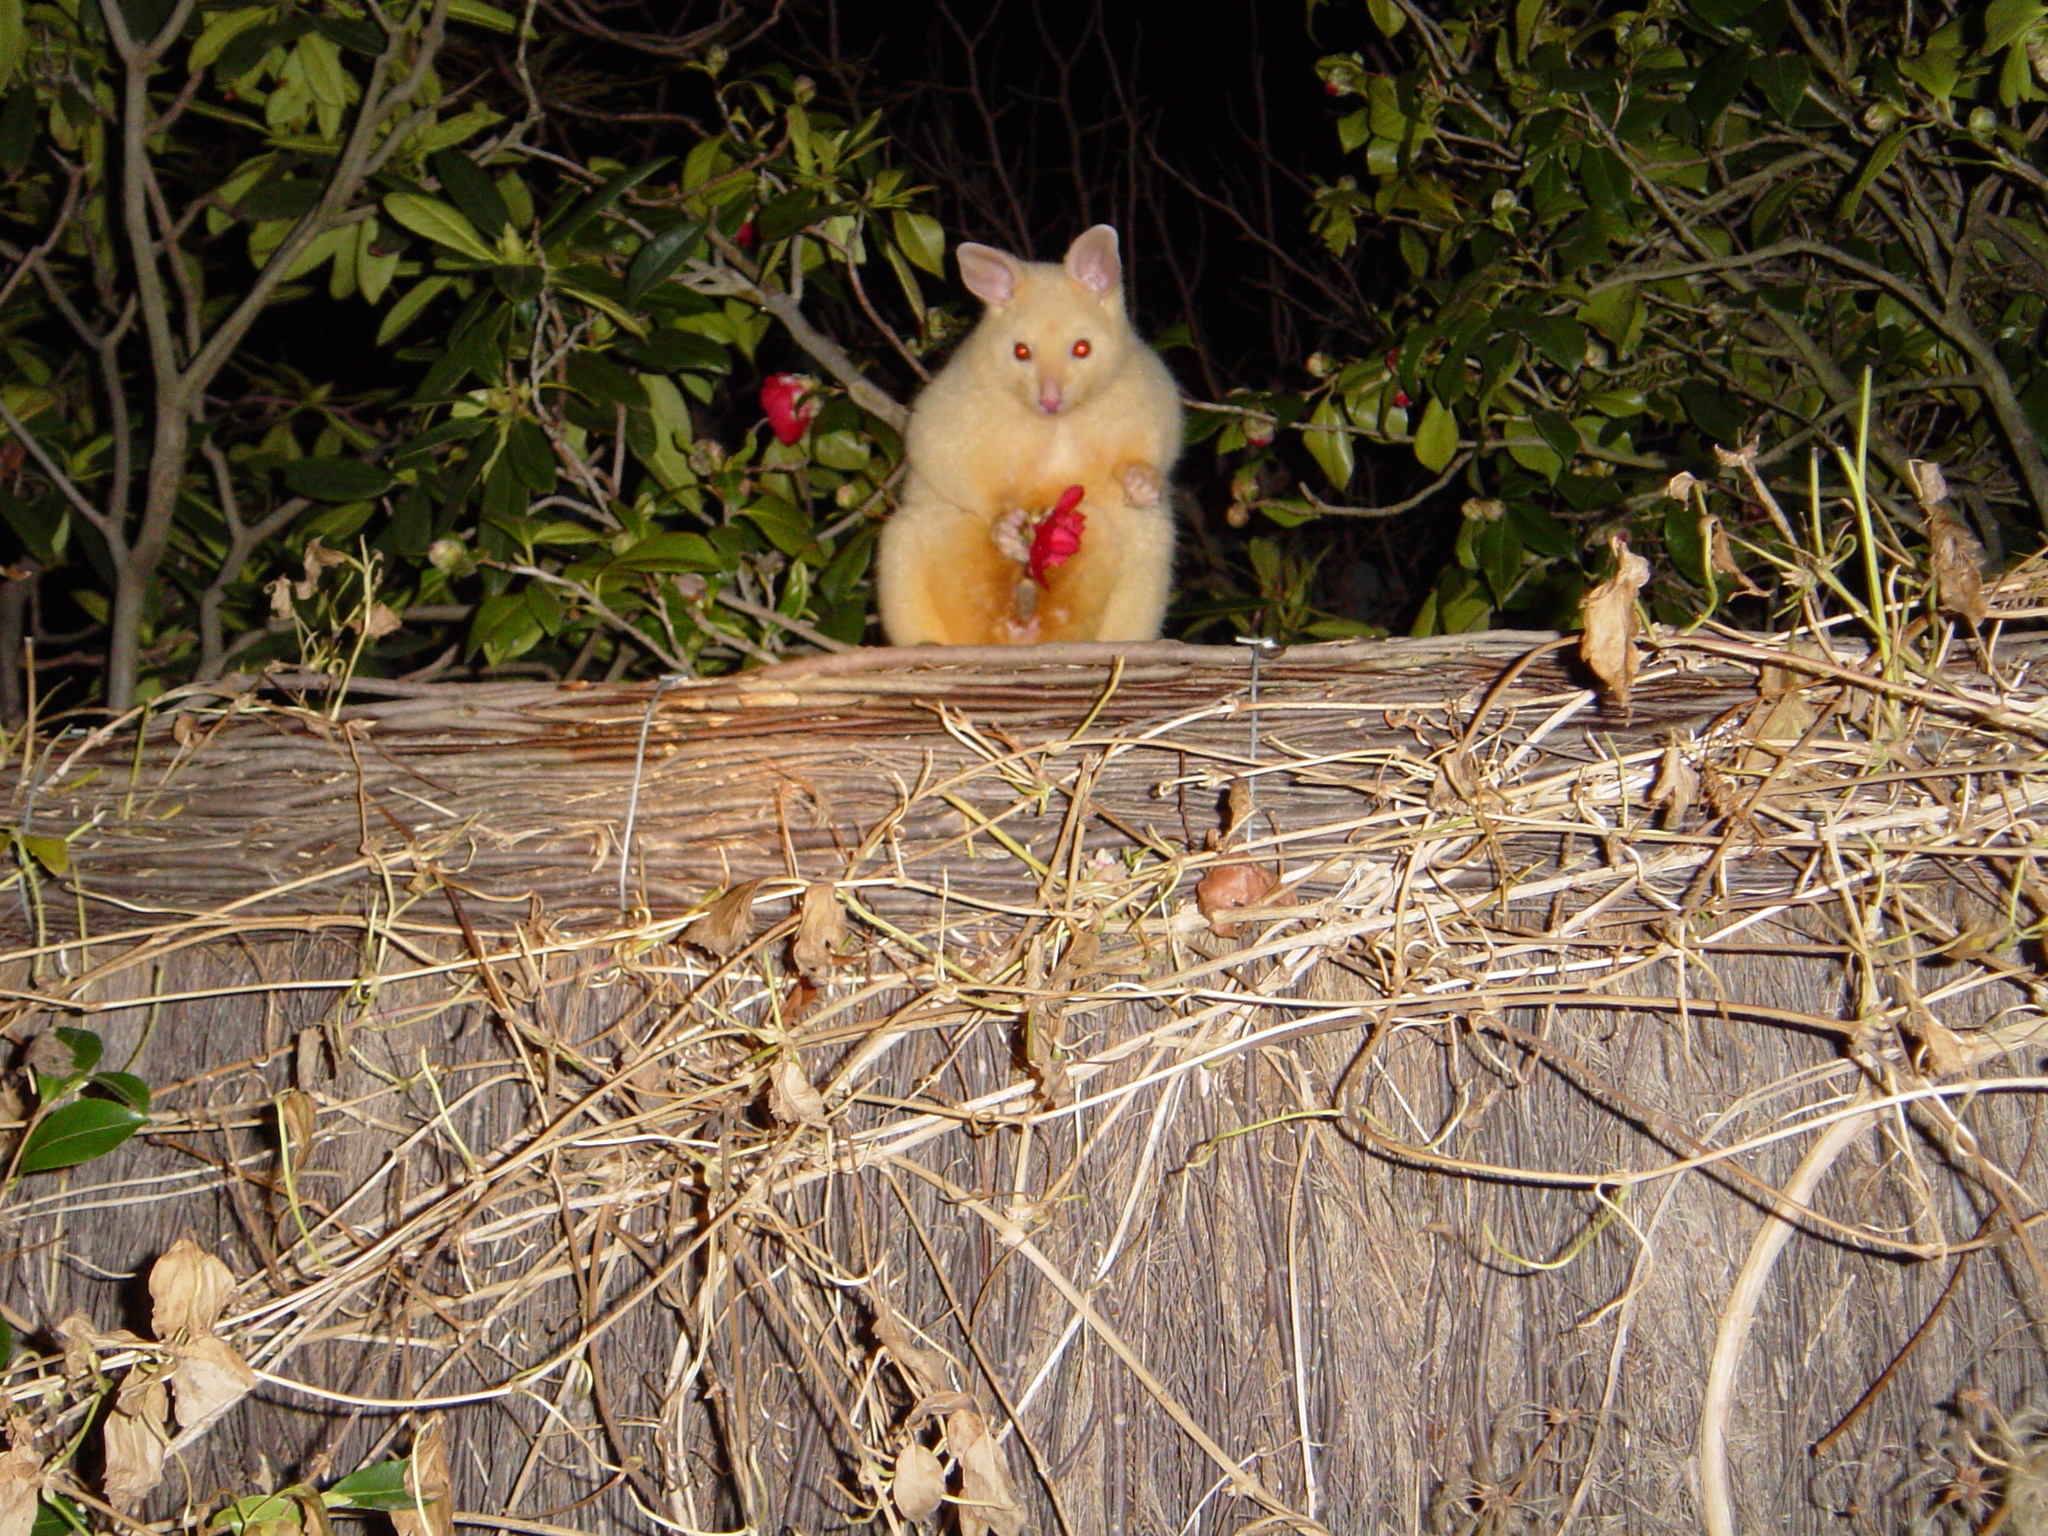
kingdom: Animalia
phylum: Chordata
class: Mammalia
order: Diprotodontia
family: Phalangeridae
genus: Trichosurus
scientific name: Trichosurus vulpecula
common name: Common brushtail
